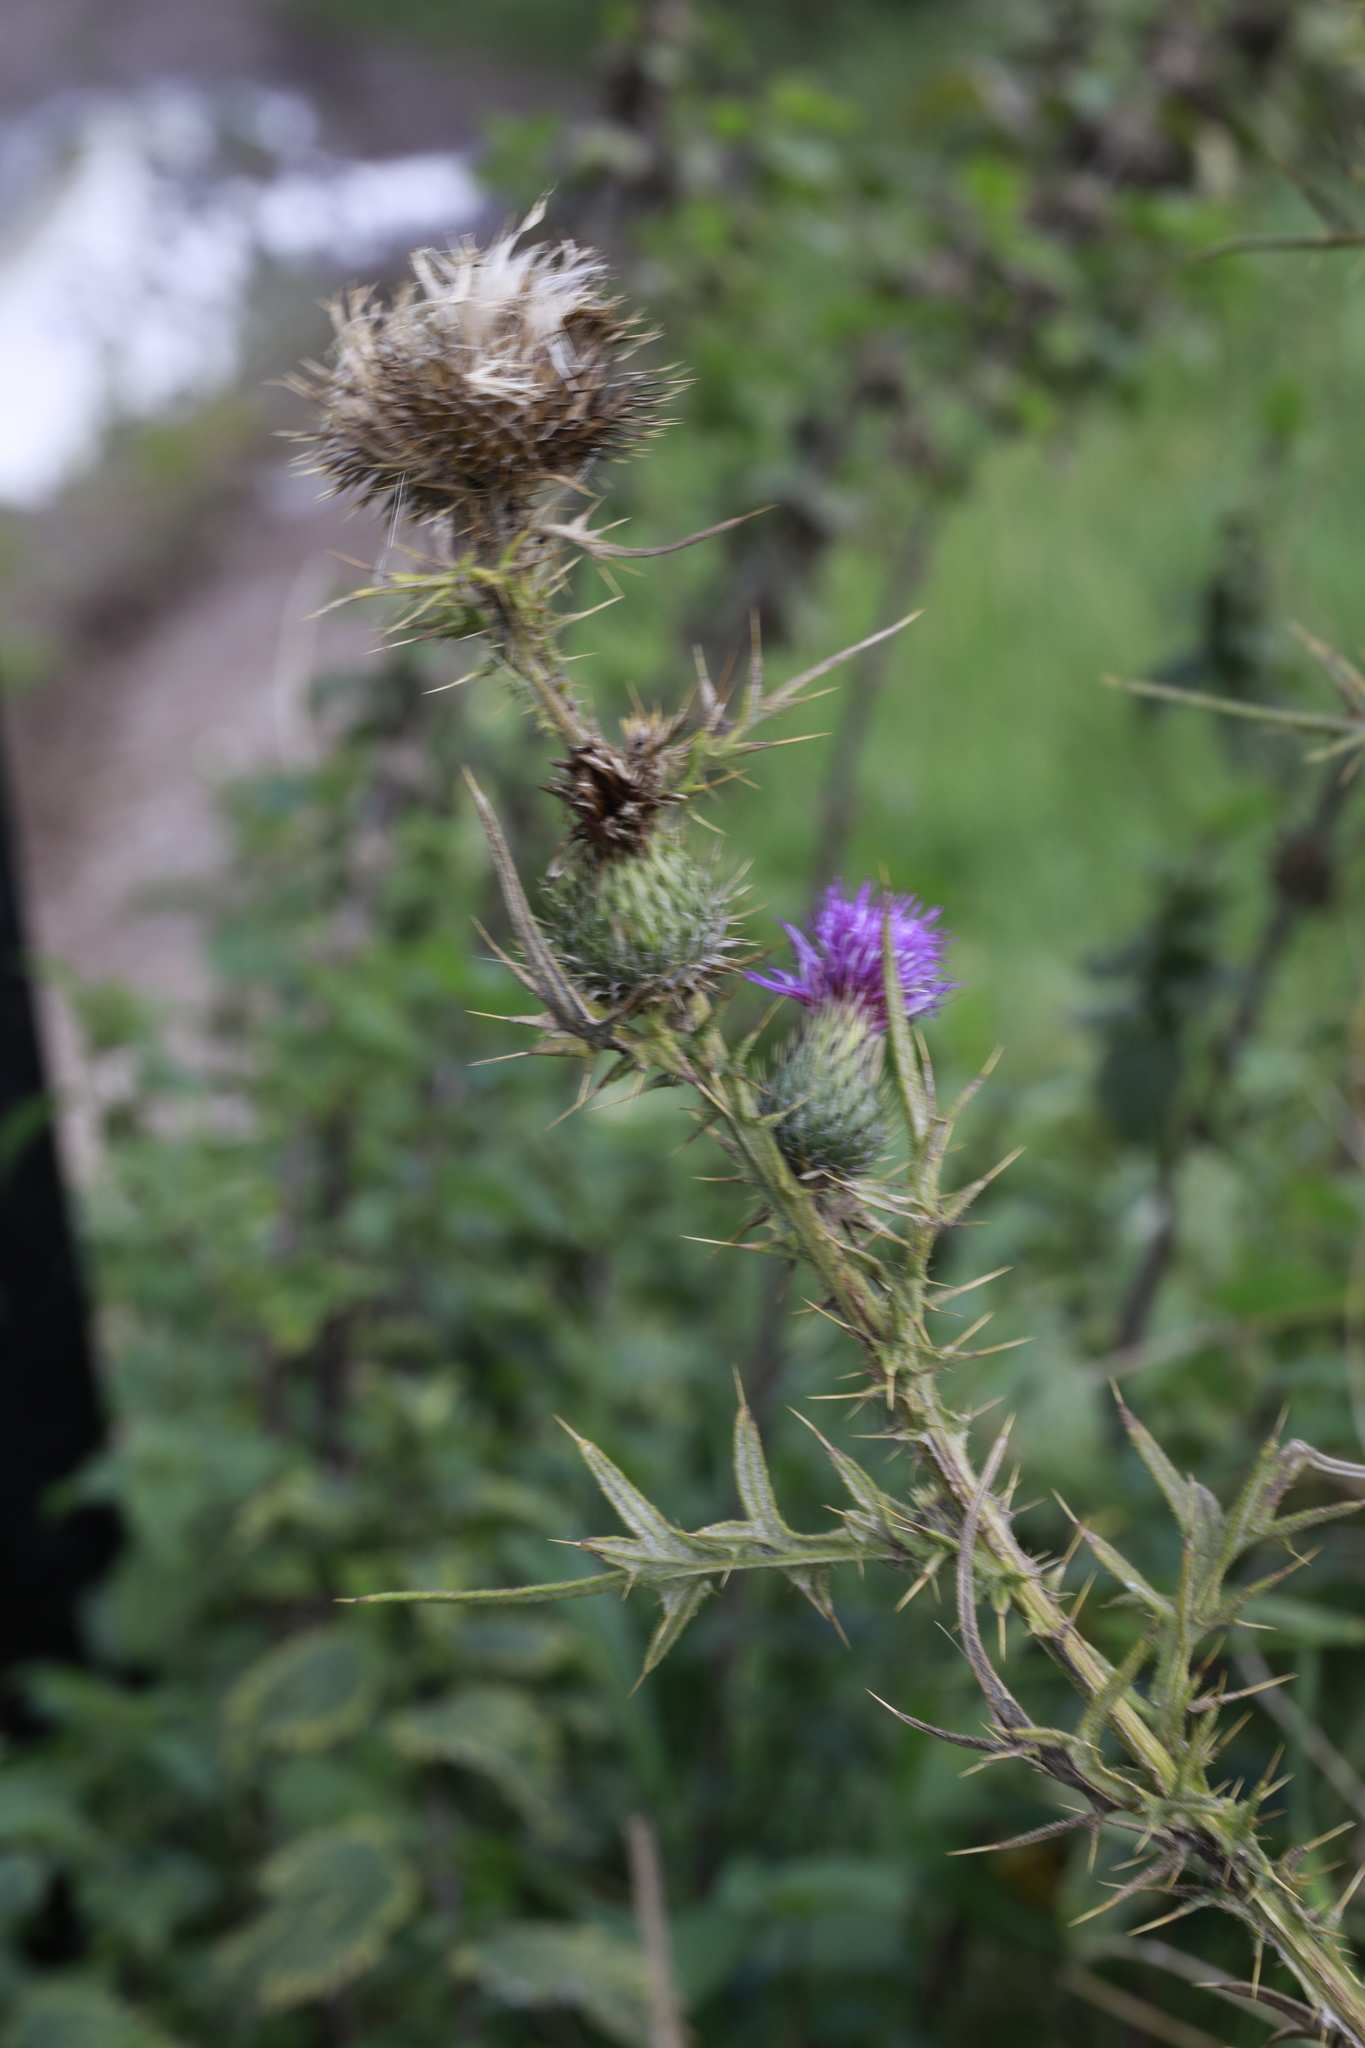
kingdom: Plantae
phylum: Tracheophyta
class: Magnoliopsida
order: Asterales
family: Asteraceae
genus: Cirsium
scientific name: Cirsium vulgare
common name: Bull thistle
